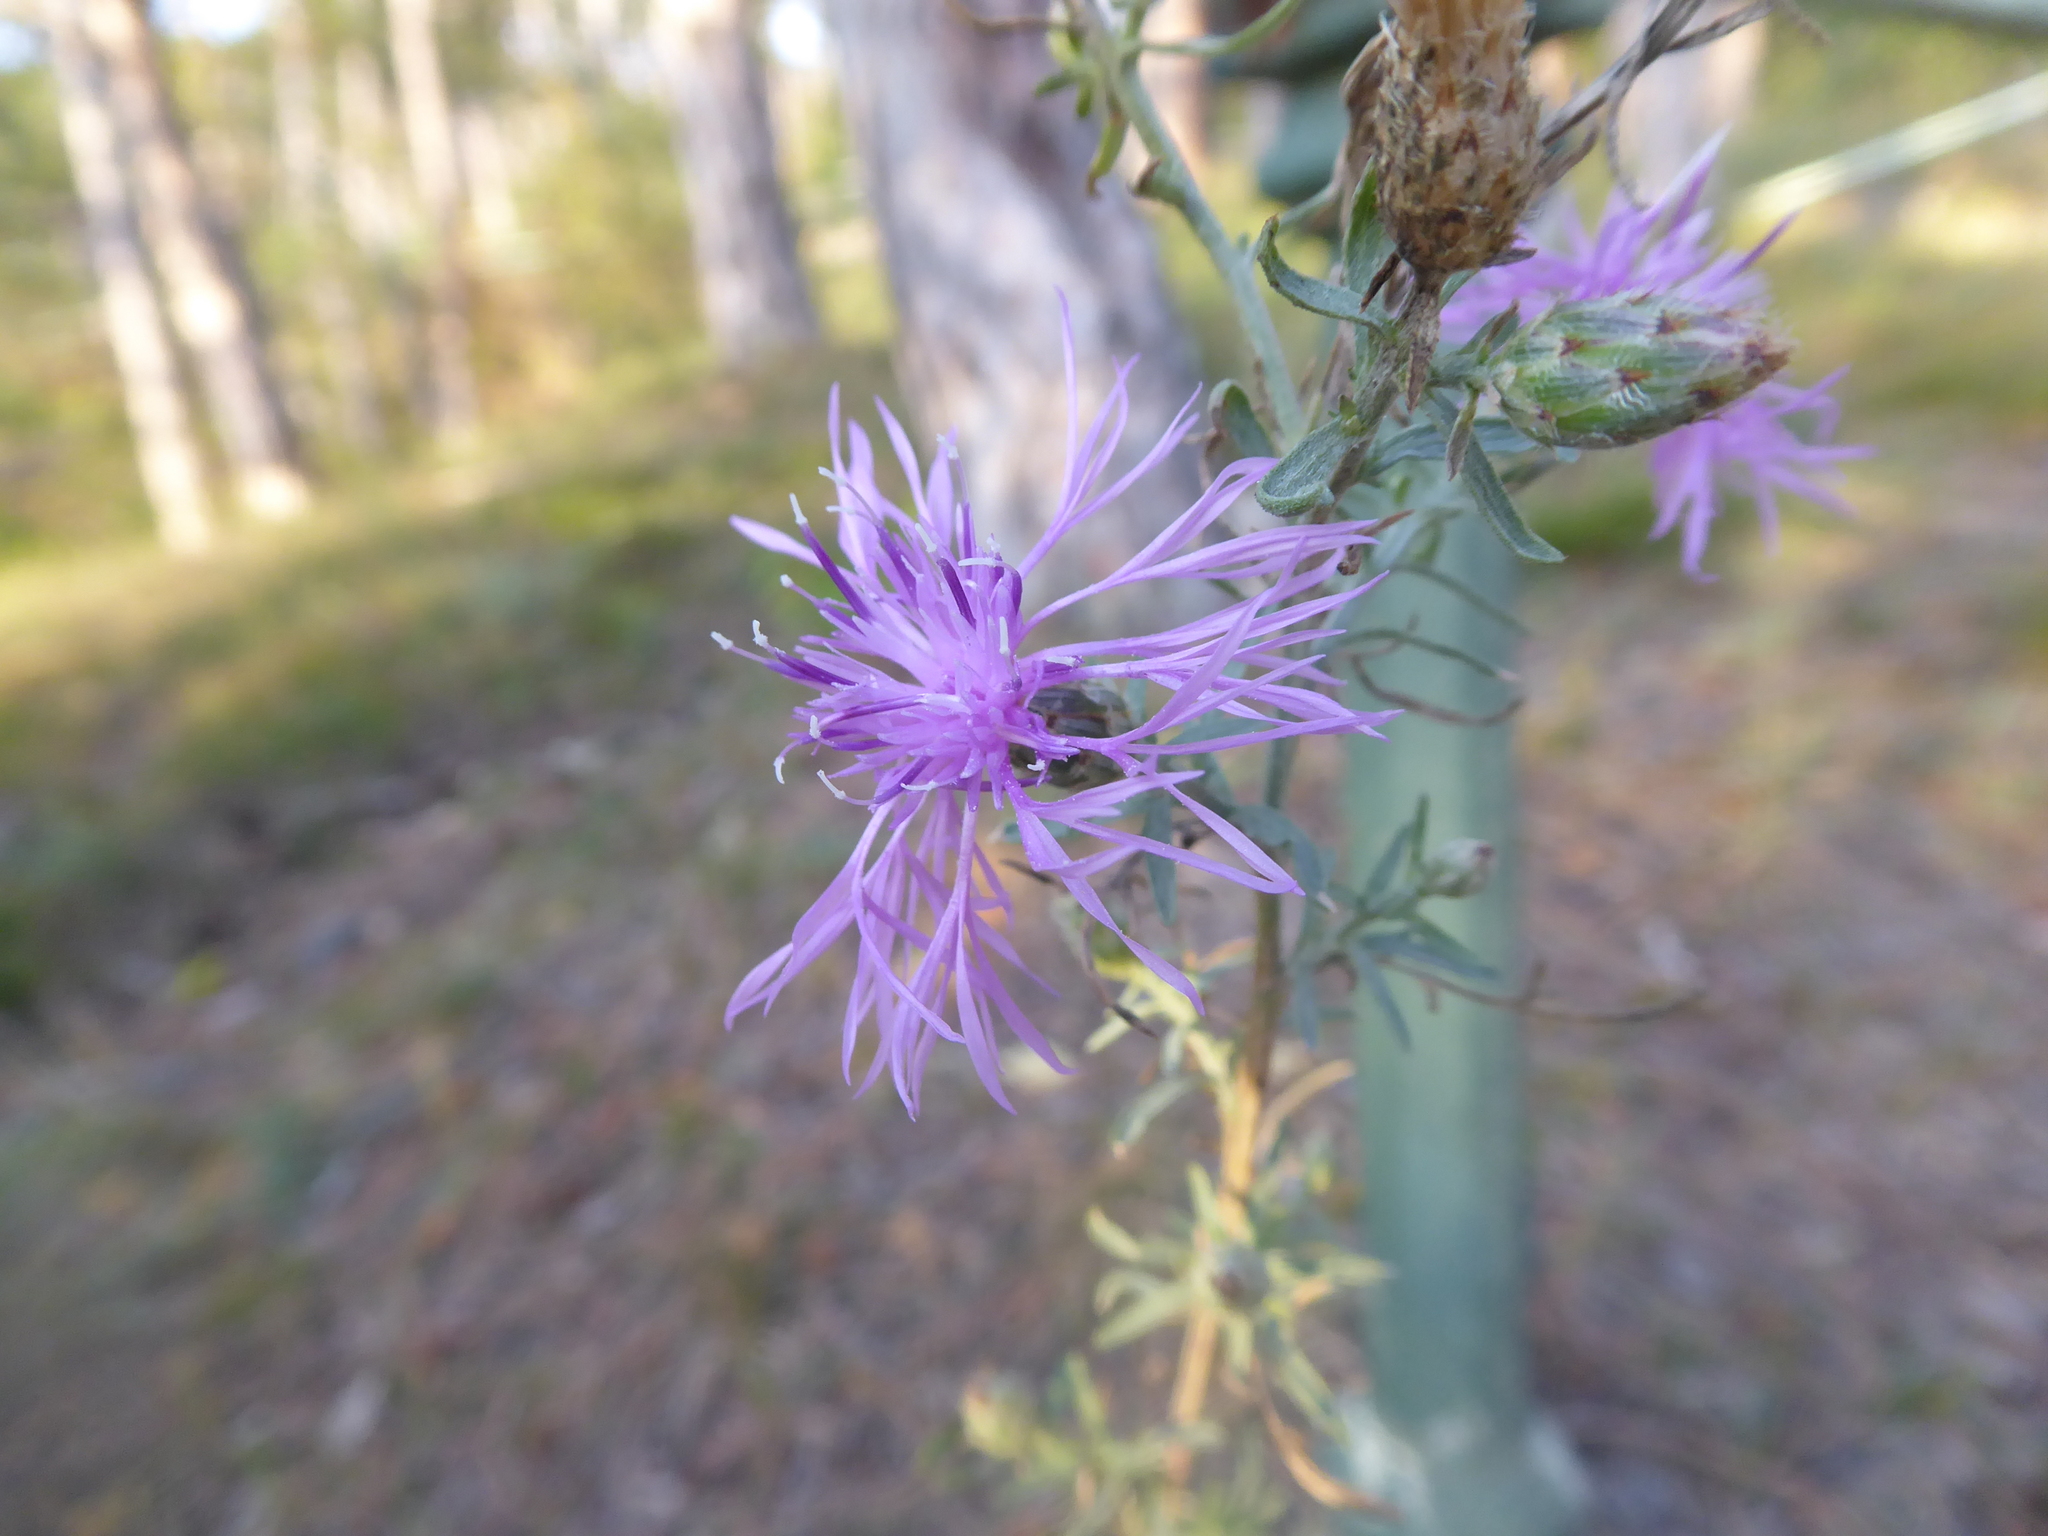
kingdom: Plantae
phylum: Tracheophyta
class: Magnoliopsida
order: Asterales
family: Asteraceae
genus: Centaurea
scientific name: Centaurea stoebe
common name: Spotted knapweed
